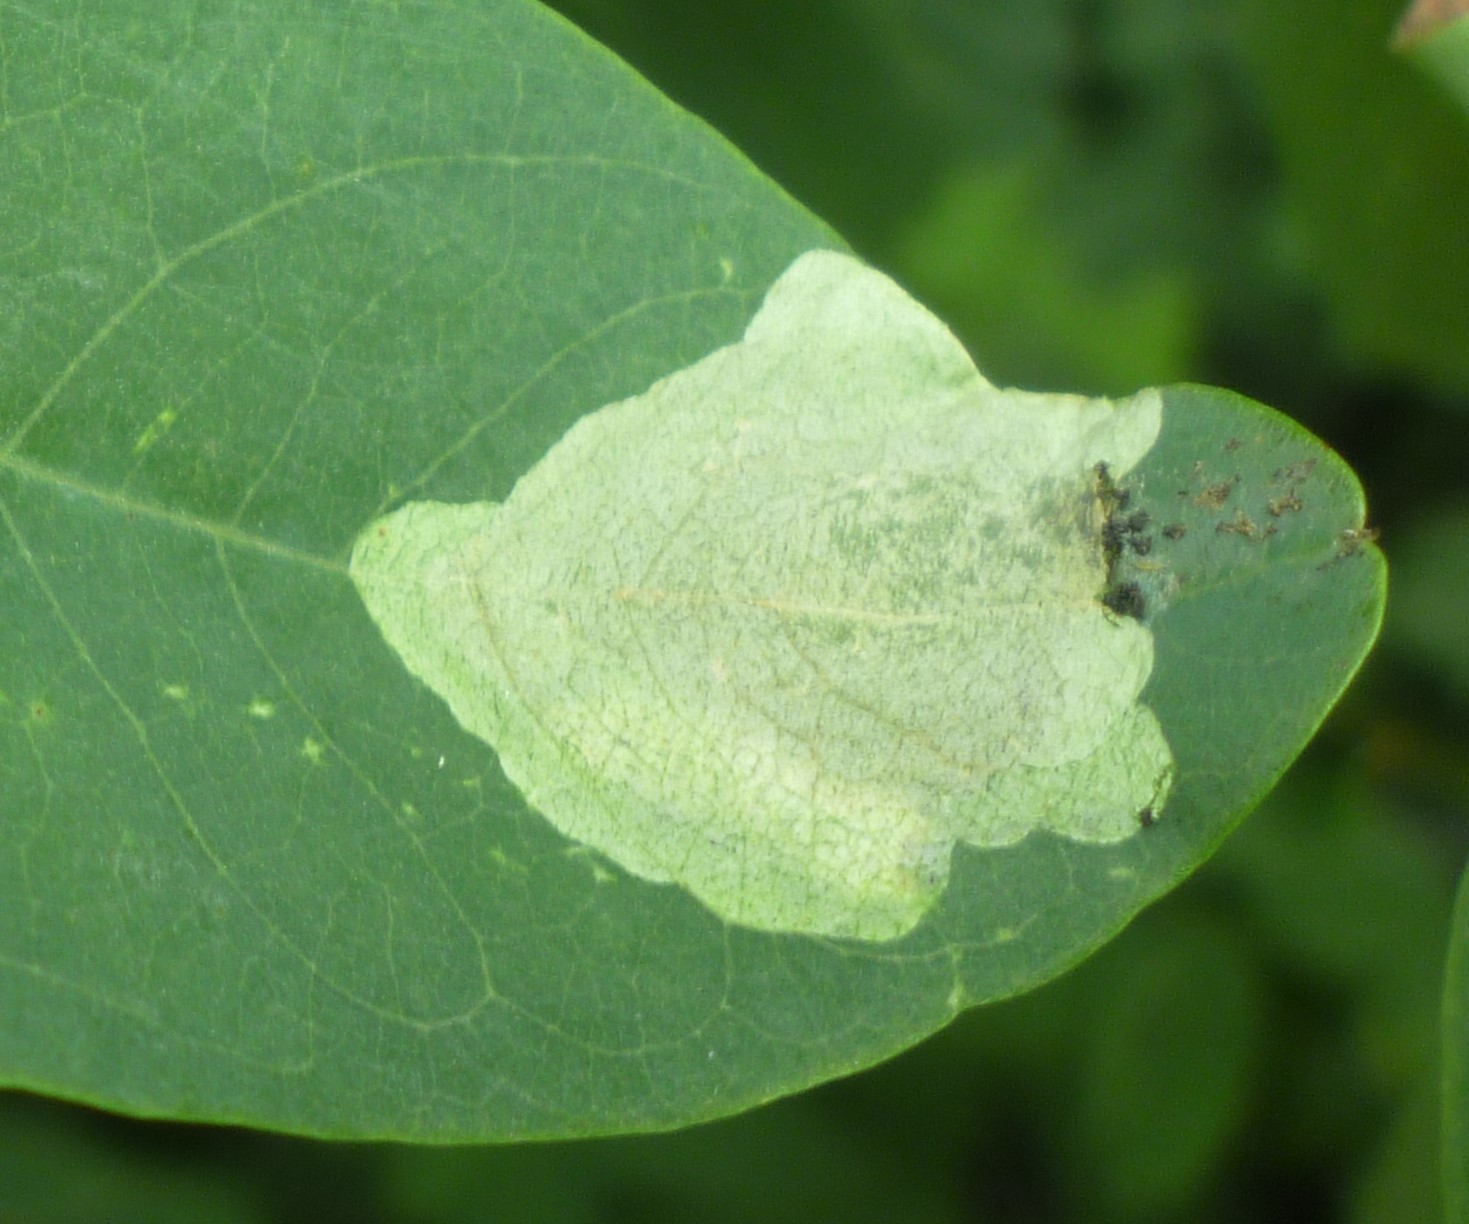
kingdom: Animalia
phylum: Arthropoda
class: Insecta
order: Coleoptera
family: Chrysomelidae
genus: Odontota
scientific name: Odontota dorsalis
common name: Locust leaf-miner beetle
